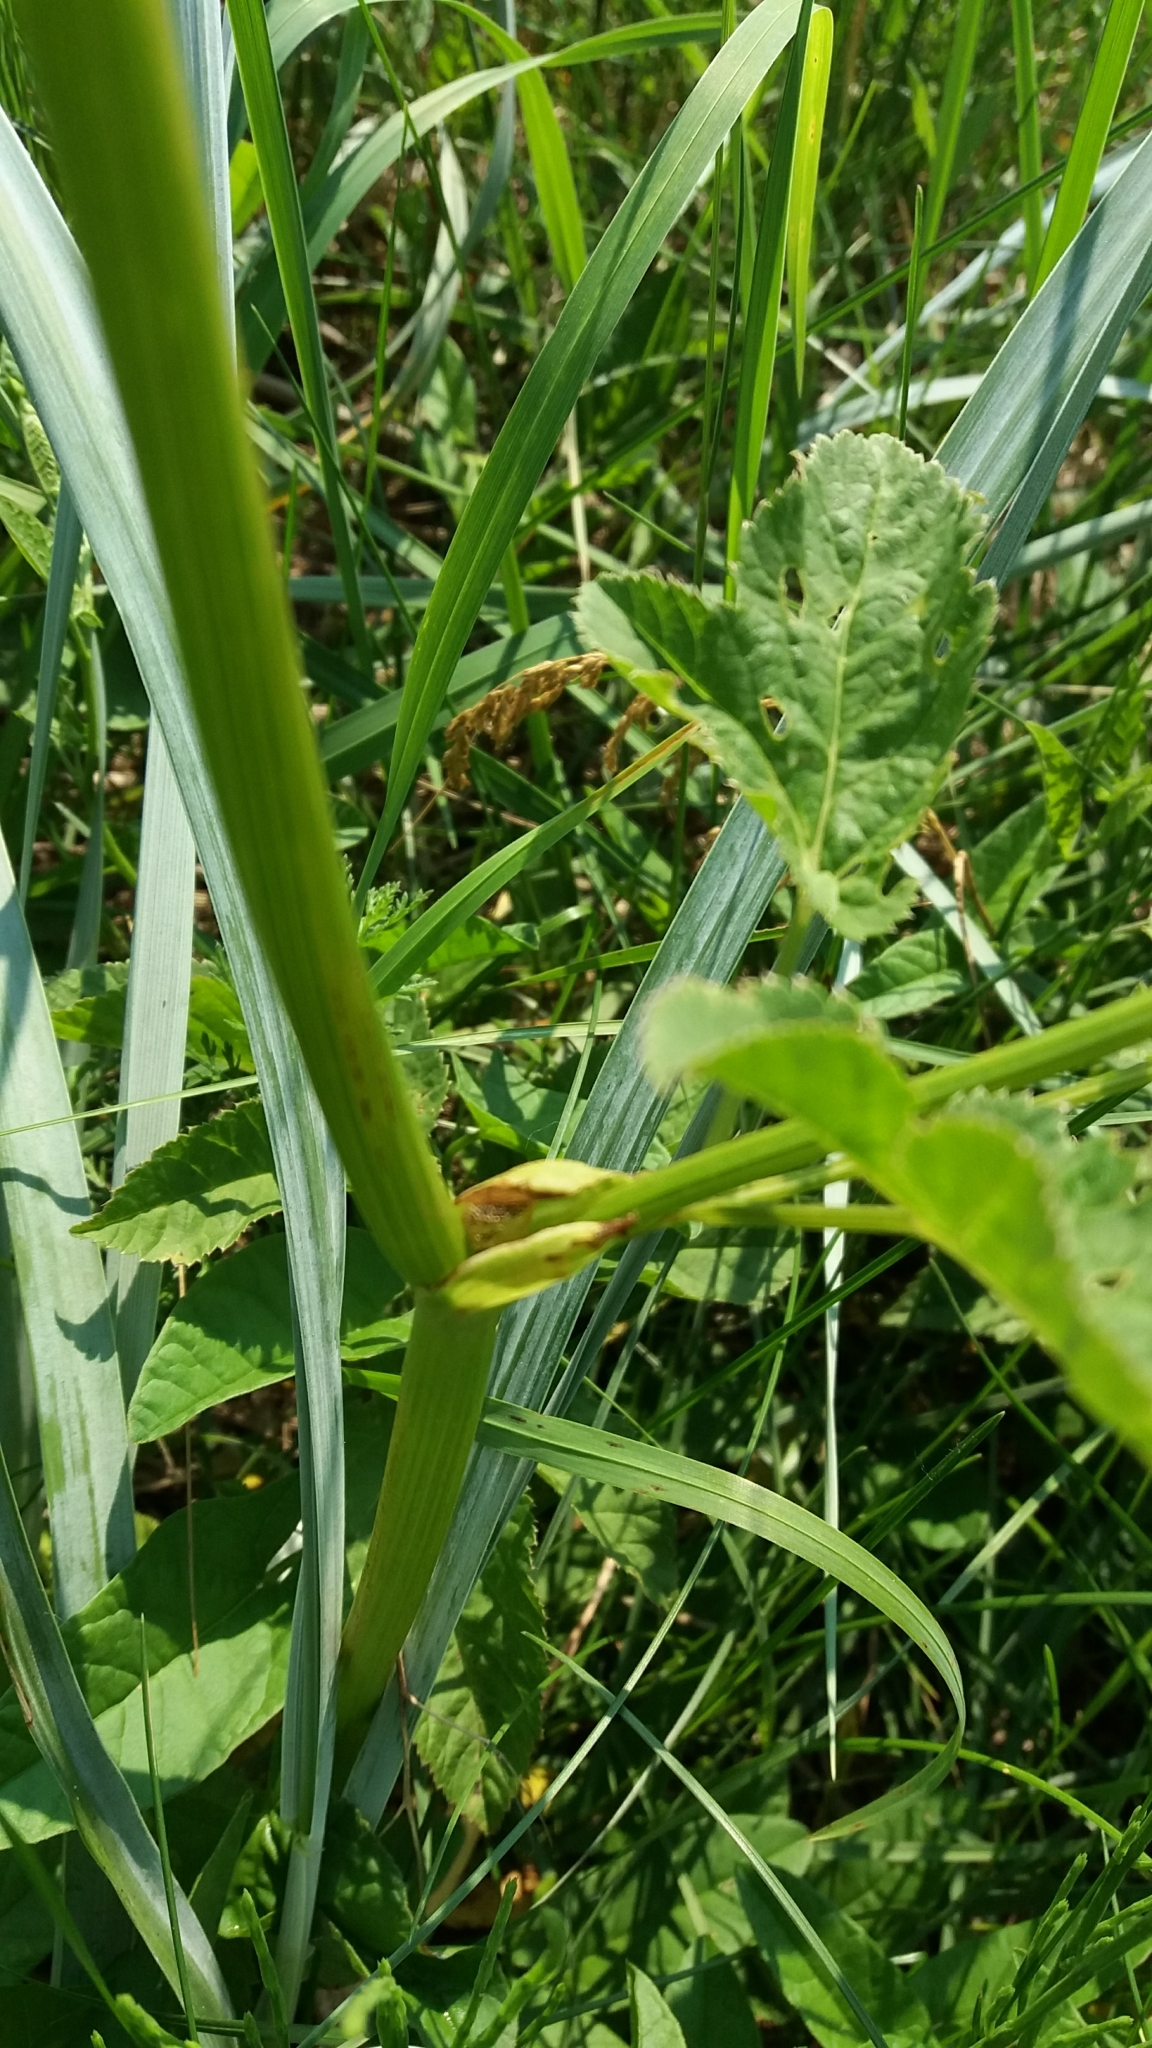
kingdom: Plantae
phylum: Tracheophyta
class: Magnoliopsida
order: Apiales
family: Apiaceae
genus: Aegopodium
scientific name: Aegopodium podagraria
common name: Ground-elder
